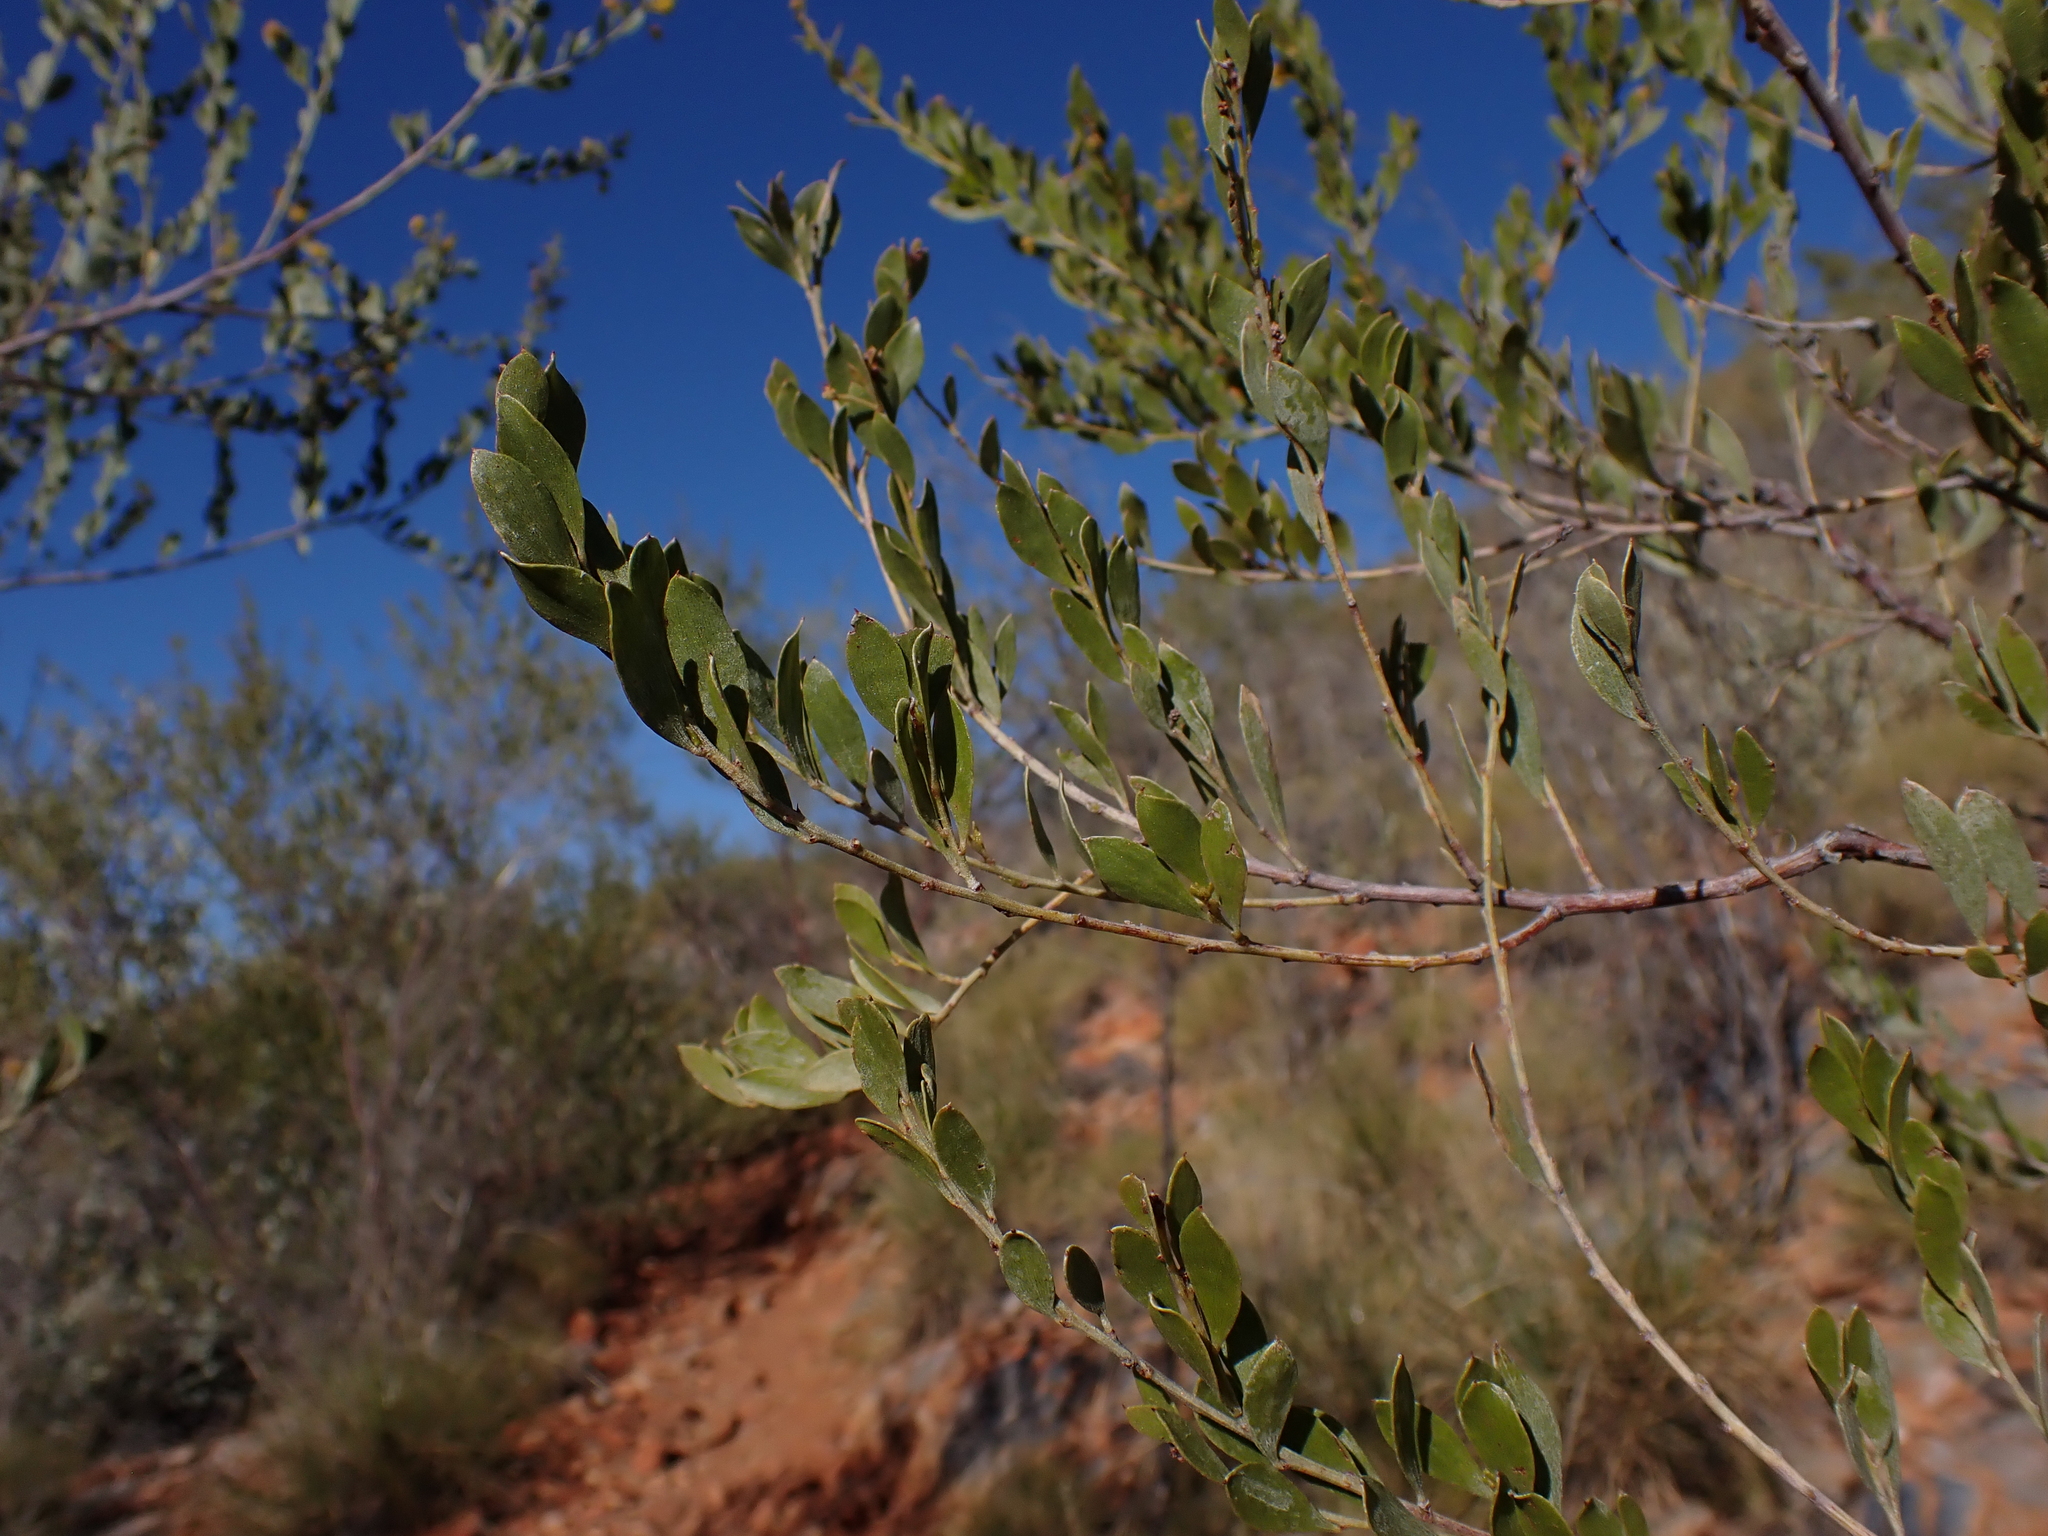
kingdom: Plantae
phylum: Tracheophyta
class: Magnoliopsida
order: Fabales
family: Fabaceae
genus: Acacia
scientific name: Acacia monticola
